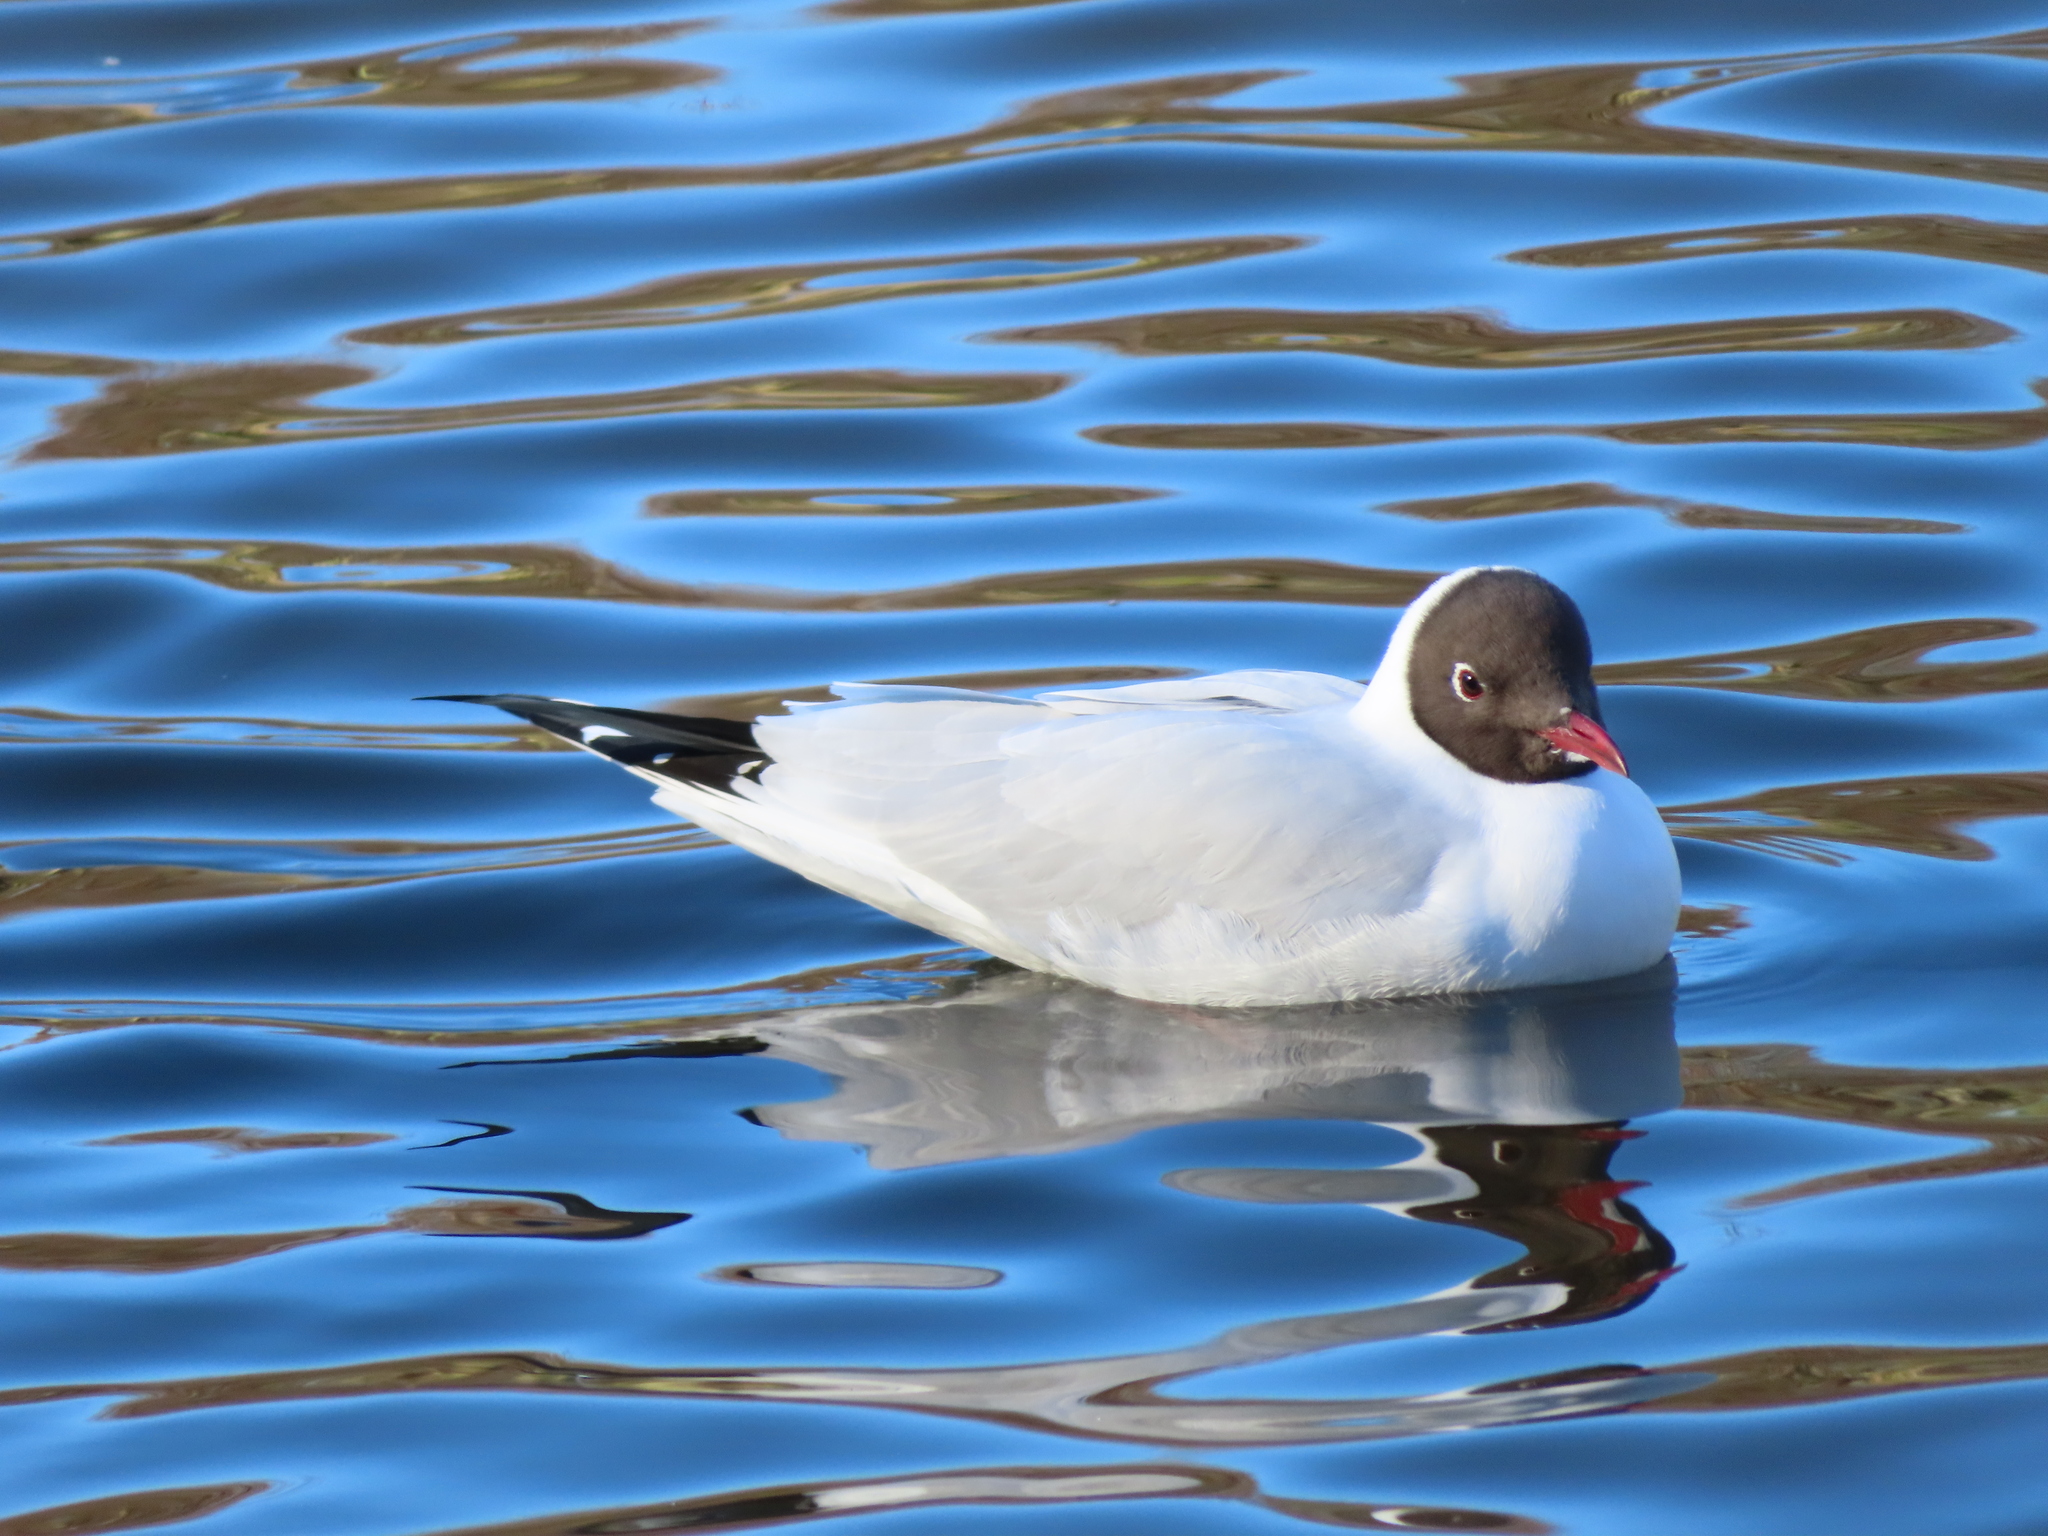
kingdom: Animalia
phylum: Chordata
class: Aves
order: Charadriiformes
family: Laridae
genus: Chroicocephalus
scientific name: Chroicocephalus ridibundus
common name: Black-headed gull
